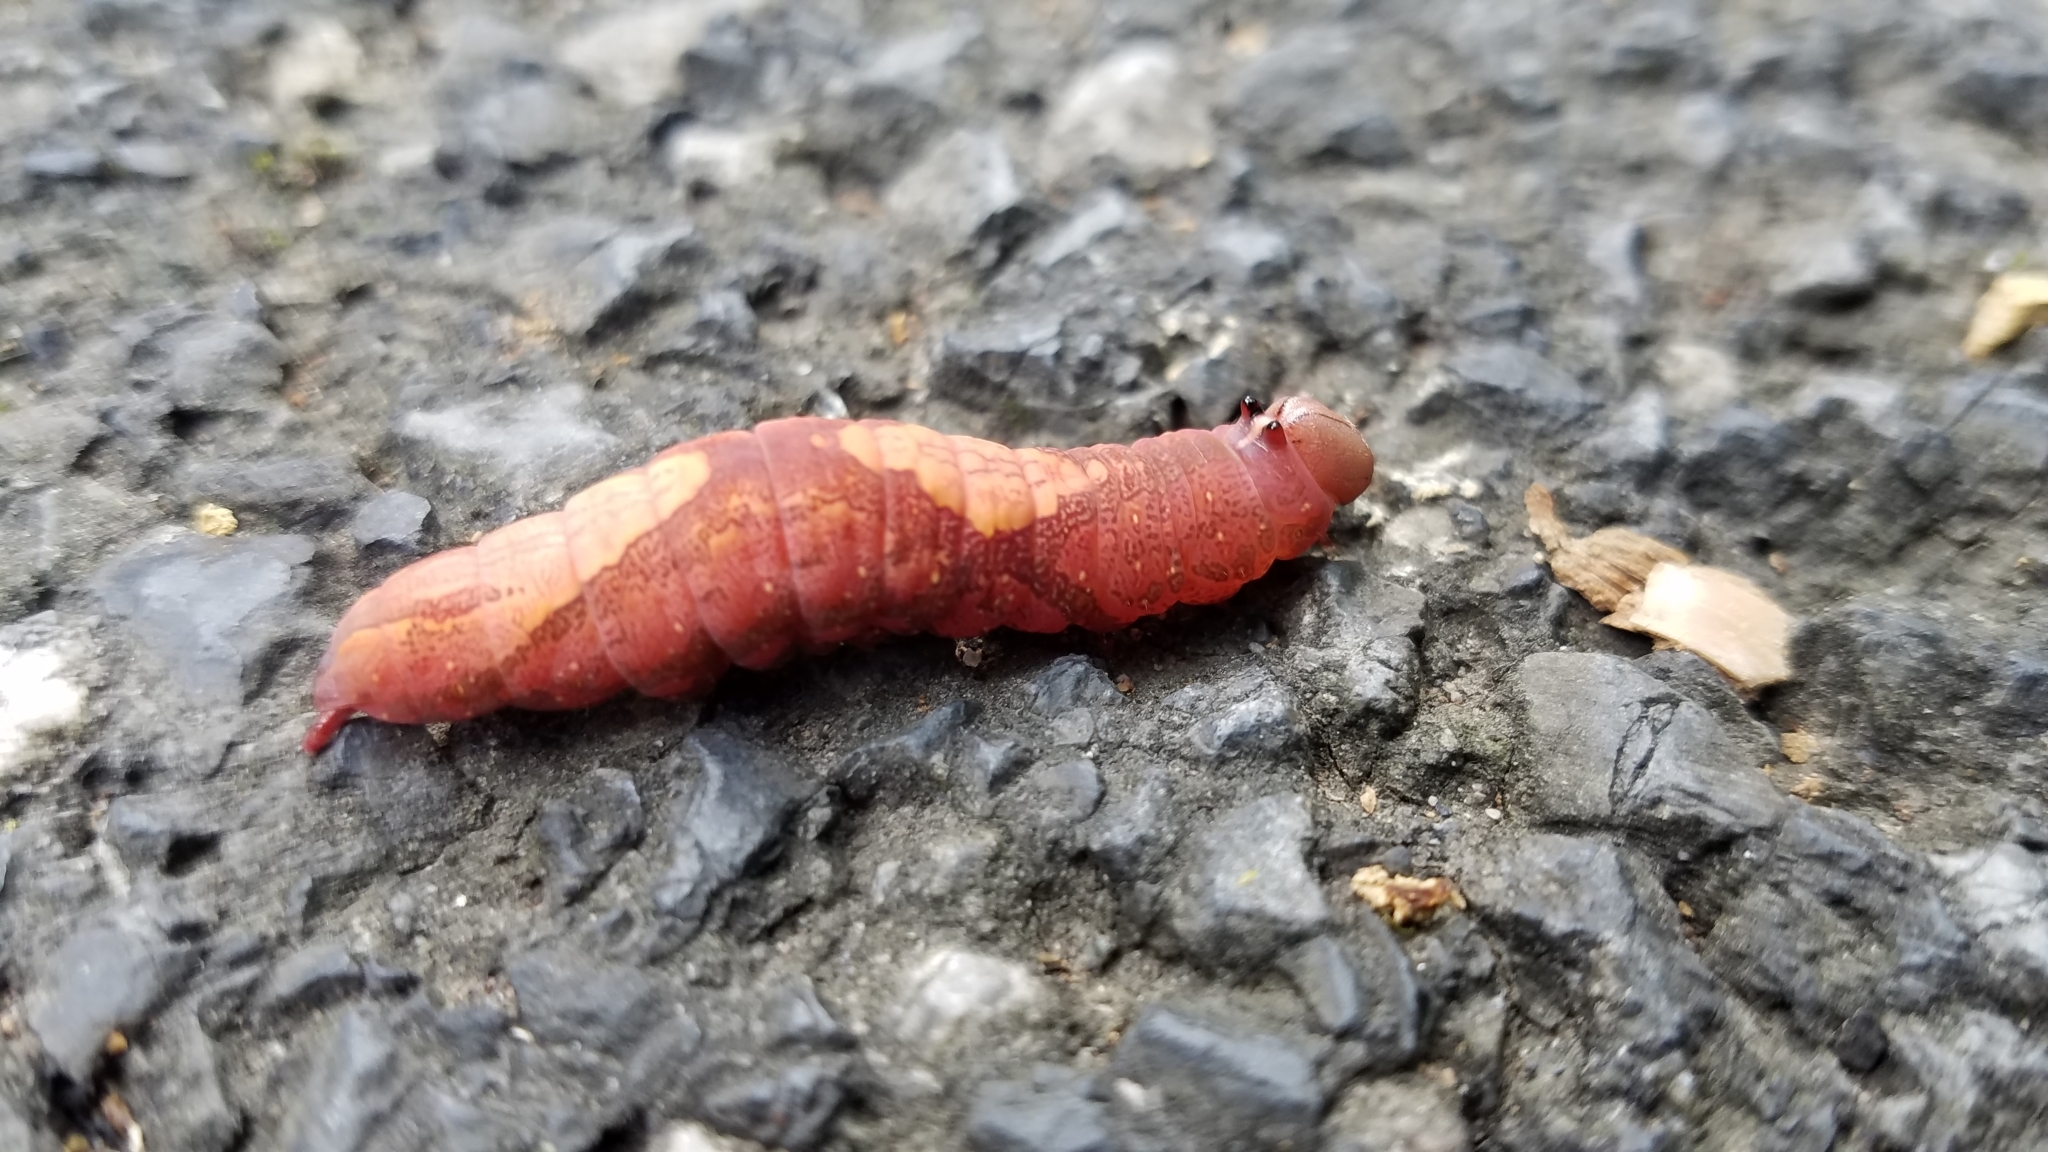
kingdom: Animalia
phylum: Arthropoda
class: Insecta
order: Lepidoptera
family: Notodontidae
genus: Heterocampa
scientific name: Heterocampa
